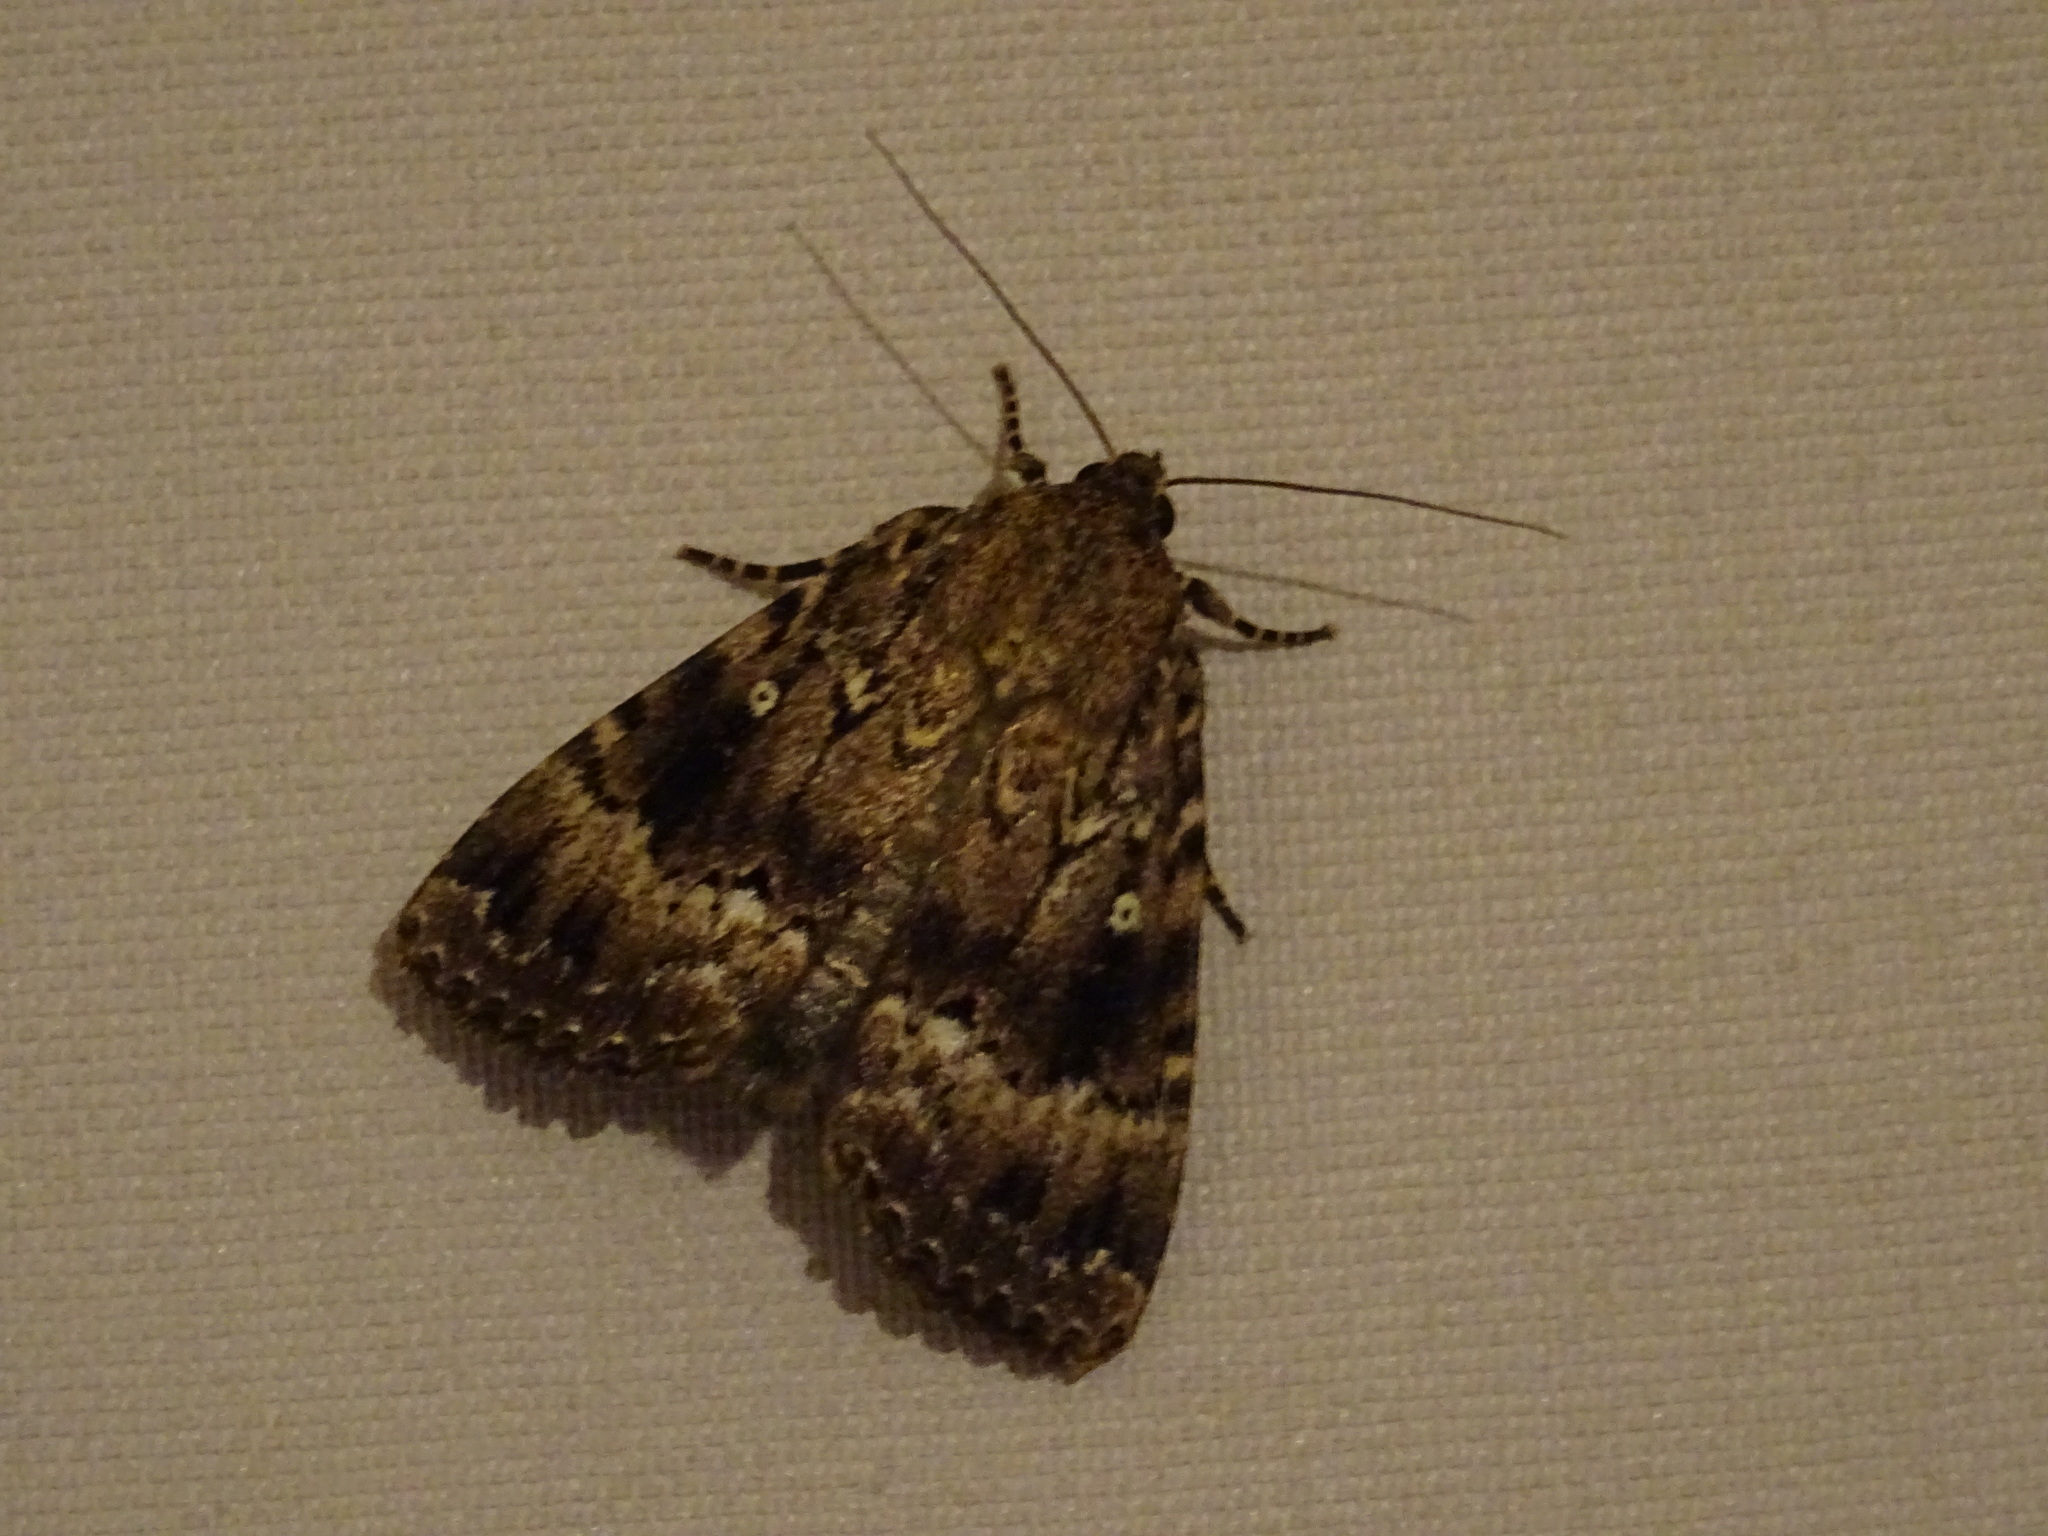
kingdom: Animalia
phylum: Arthropoda
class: Insecta
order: Lepidoptera
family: Noctuidae
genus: Amphipyra
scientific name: Amphipyra pyramidea
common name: Copper underwing
